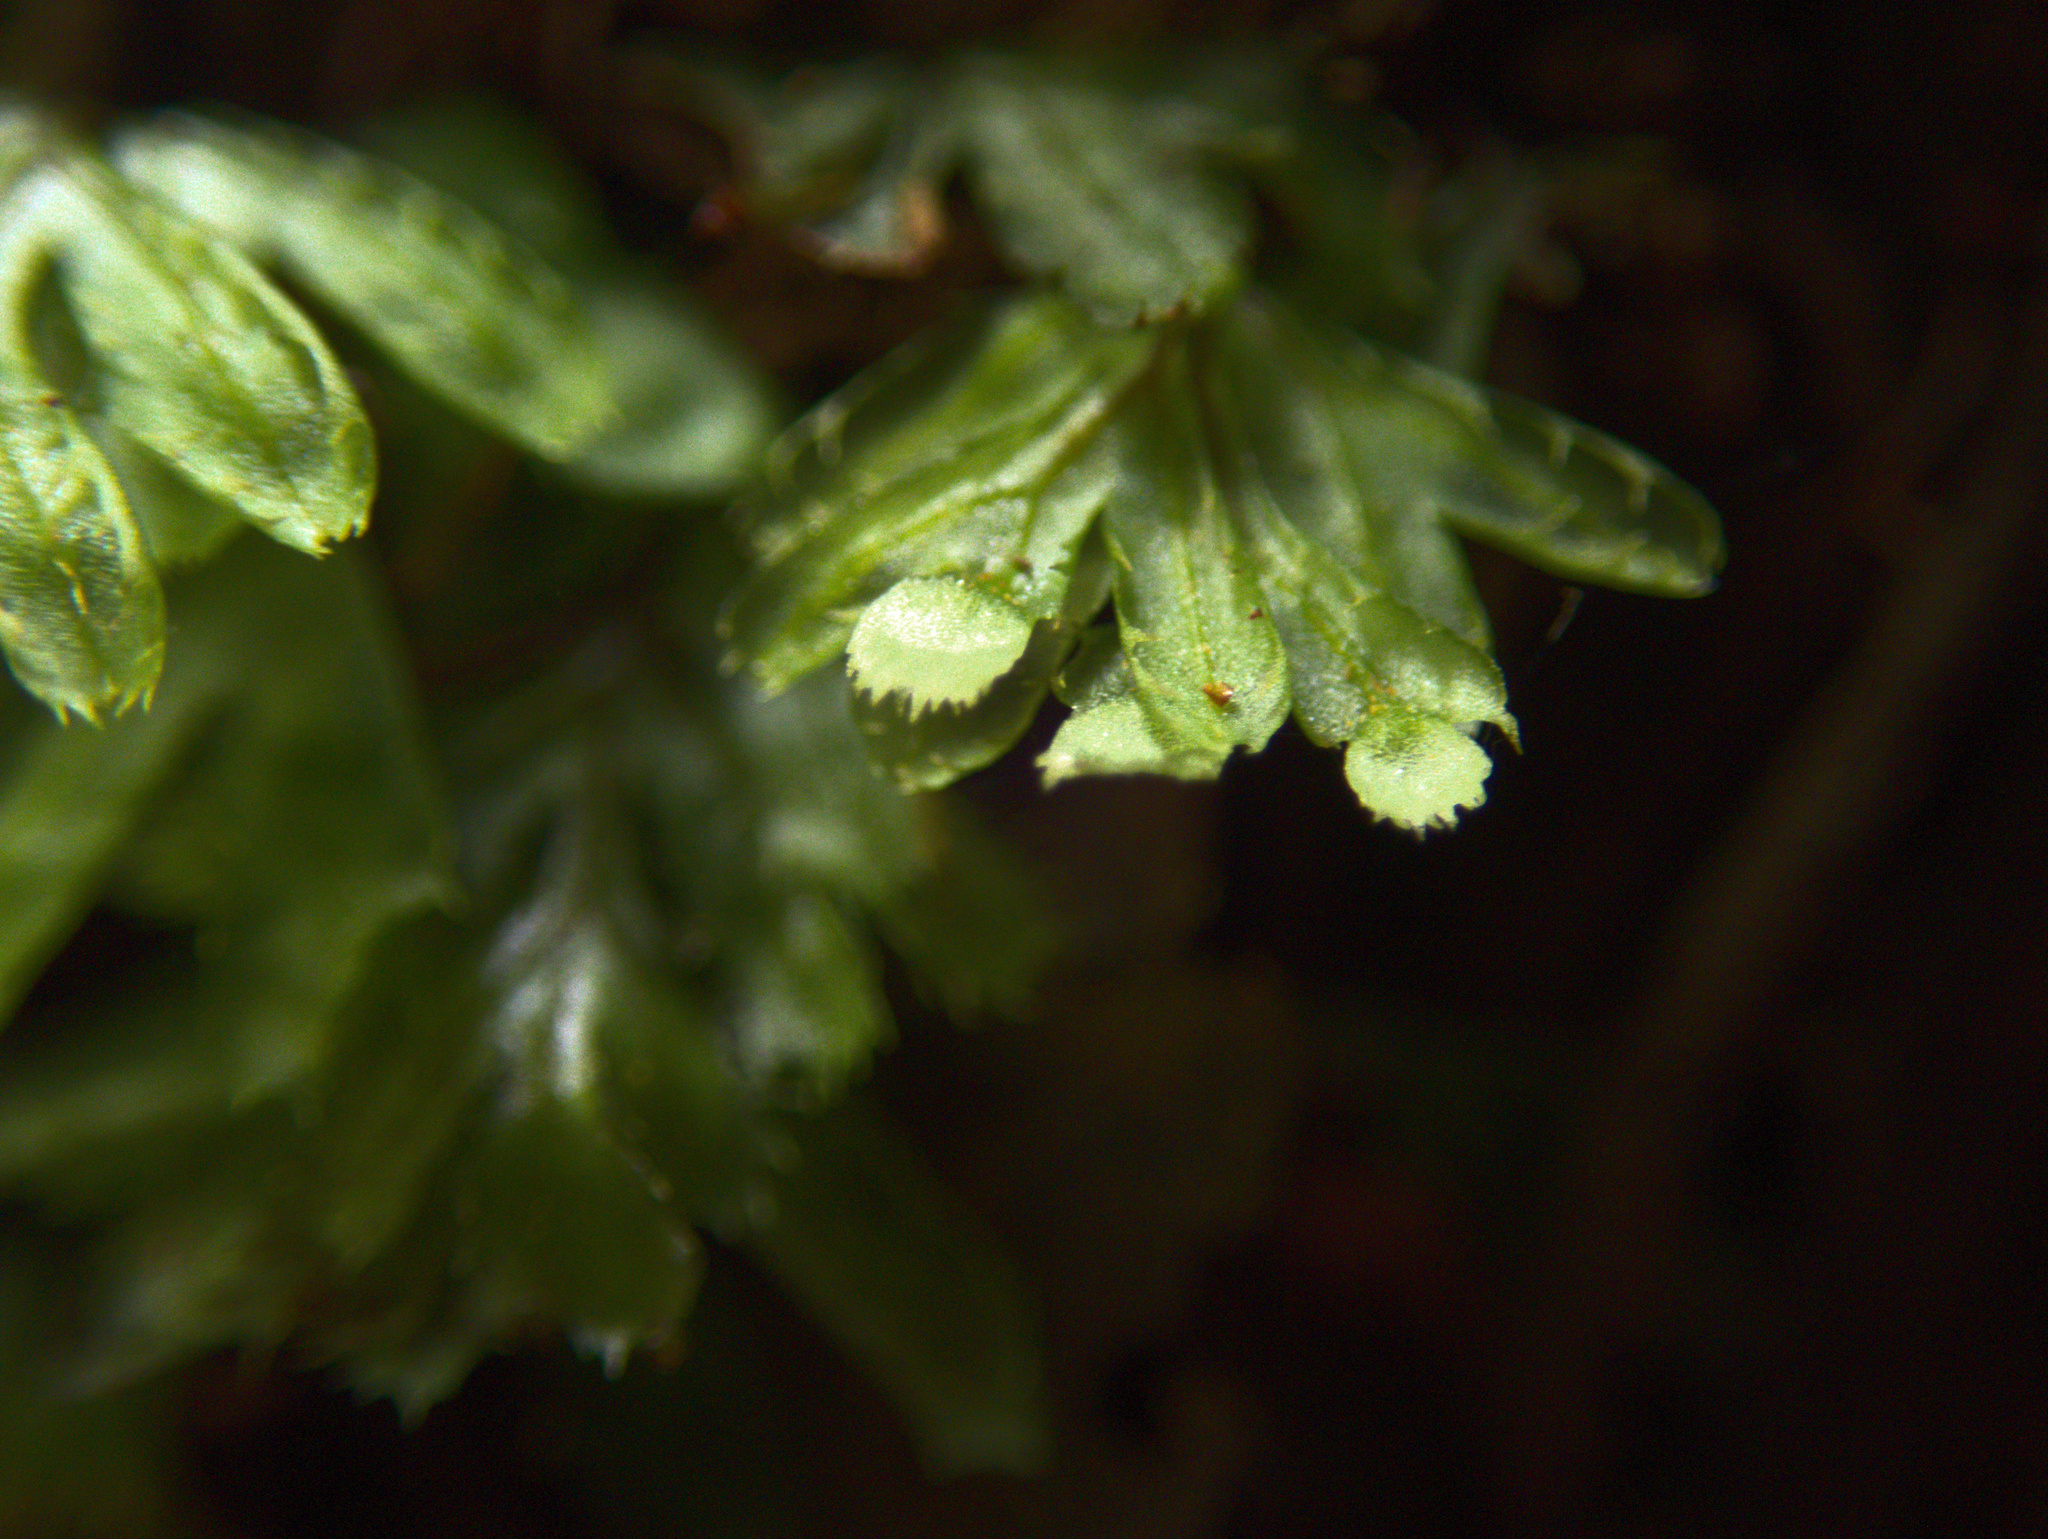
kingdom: Plantae
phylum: Tracheophyta
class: Polypodiopsida
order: Hymenophyllales
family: Hymenophyllaceae
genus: Hymenophyllum
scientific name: Hymenophyllum revolutum
